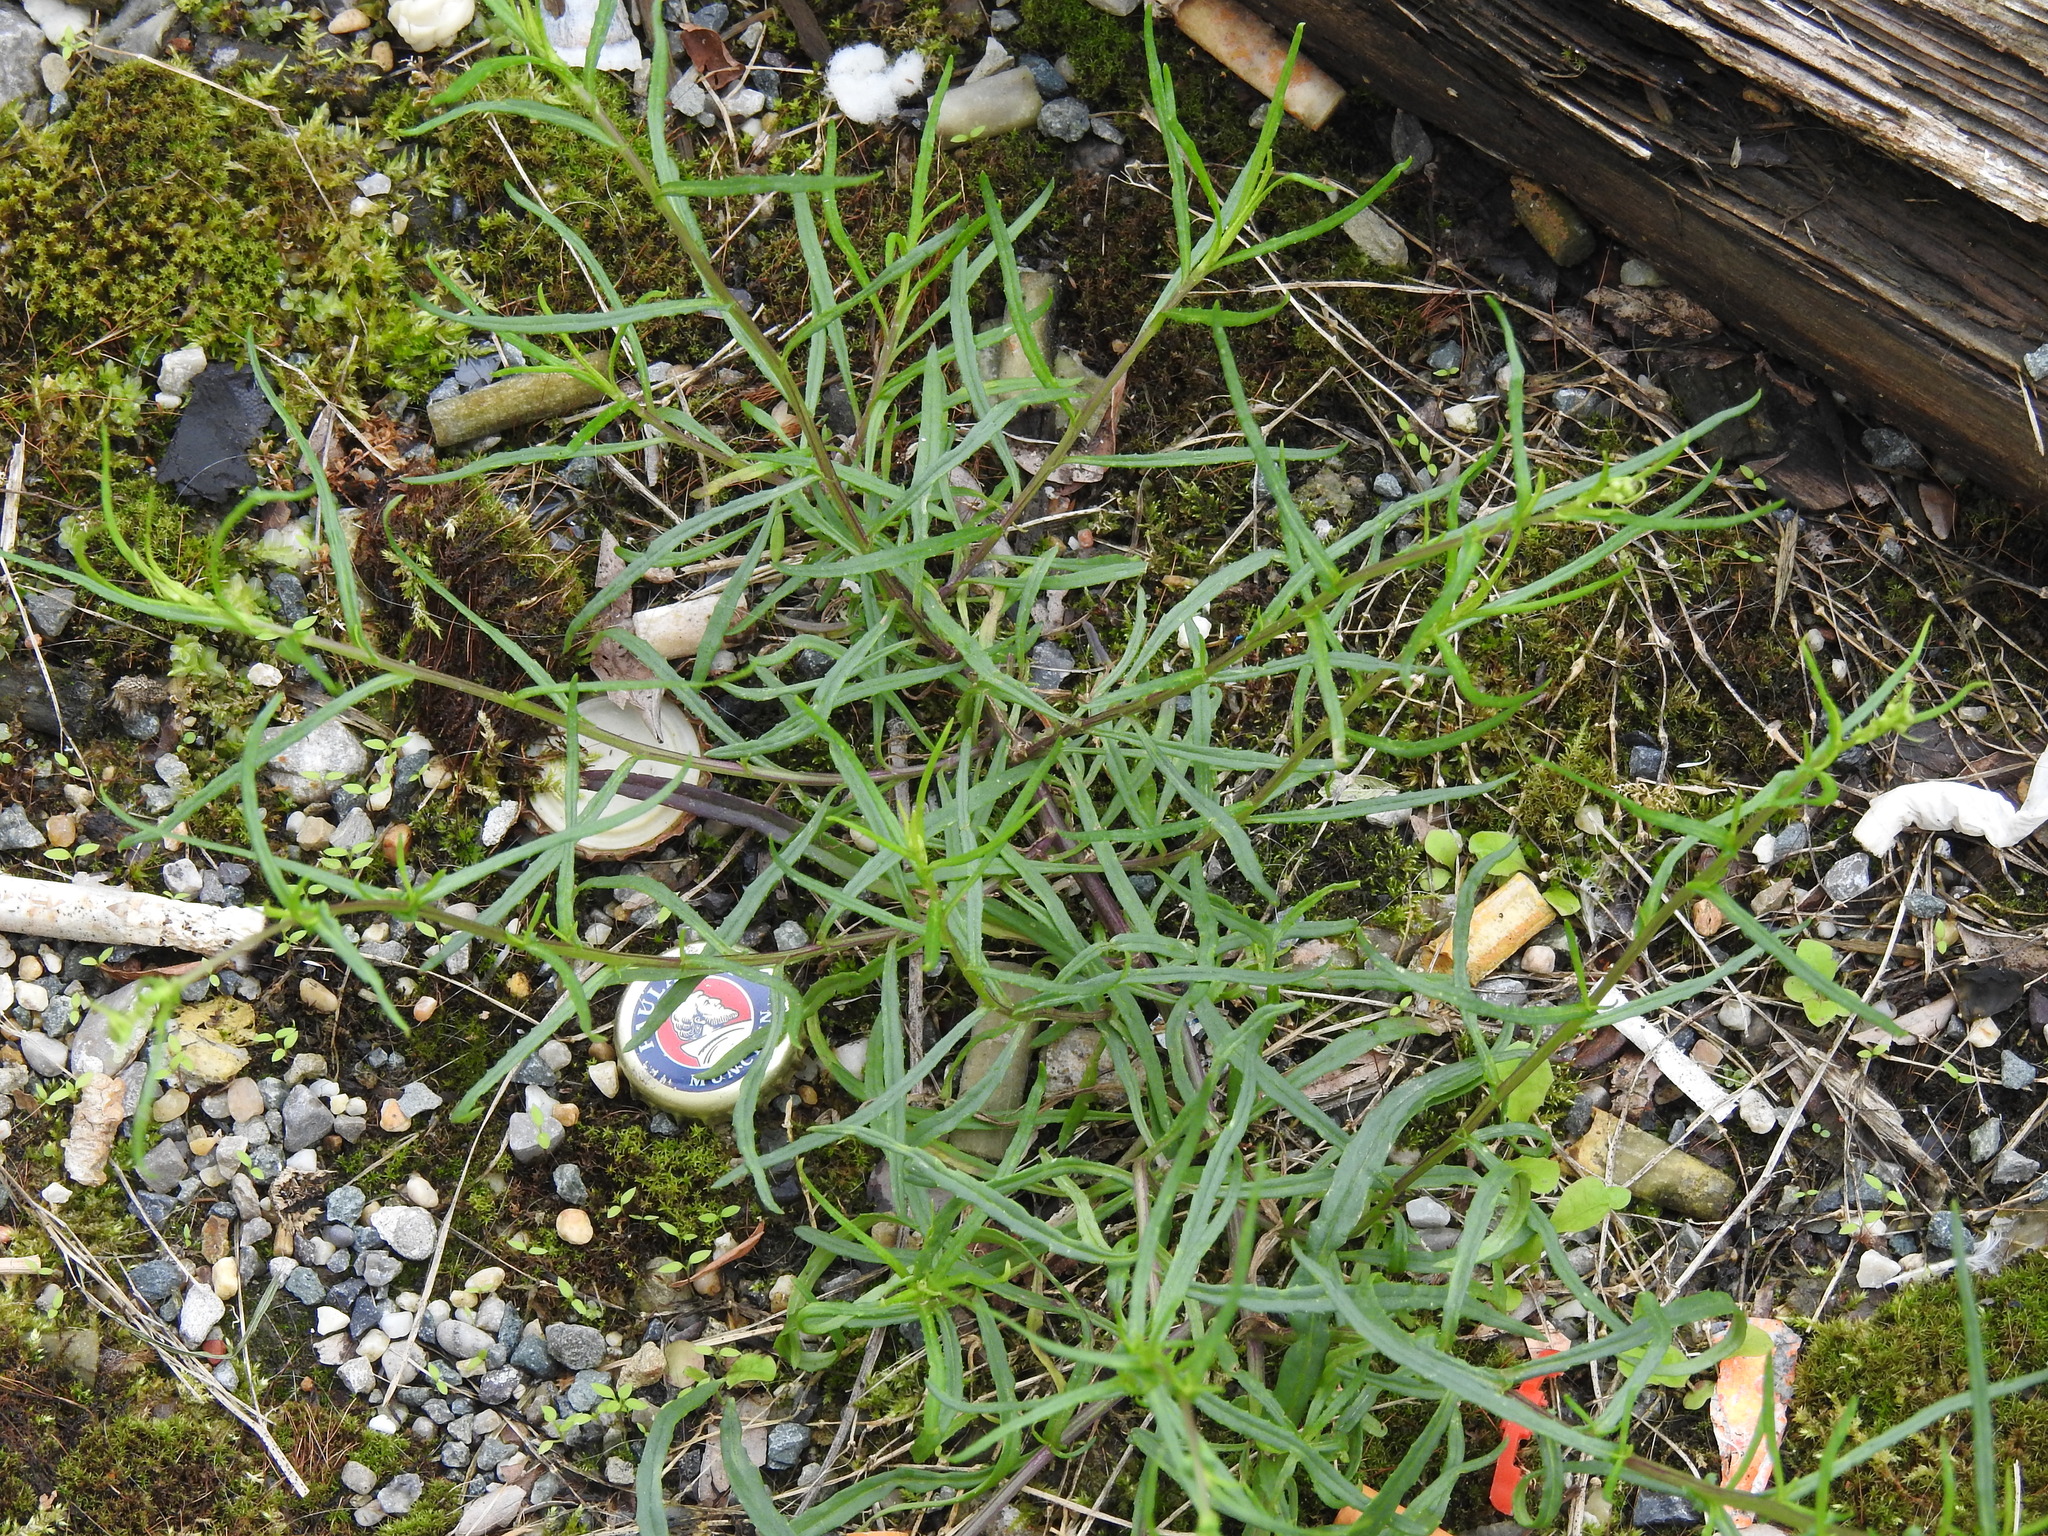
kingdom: Plantae
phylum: Tracheophyta
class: Magnoliopsida
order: Asterales
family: Asteraceae
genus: Senecio
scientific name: Senecio inaequidens
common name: Narrow-leaved ragwort
